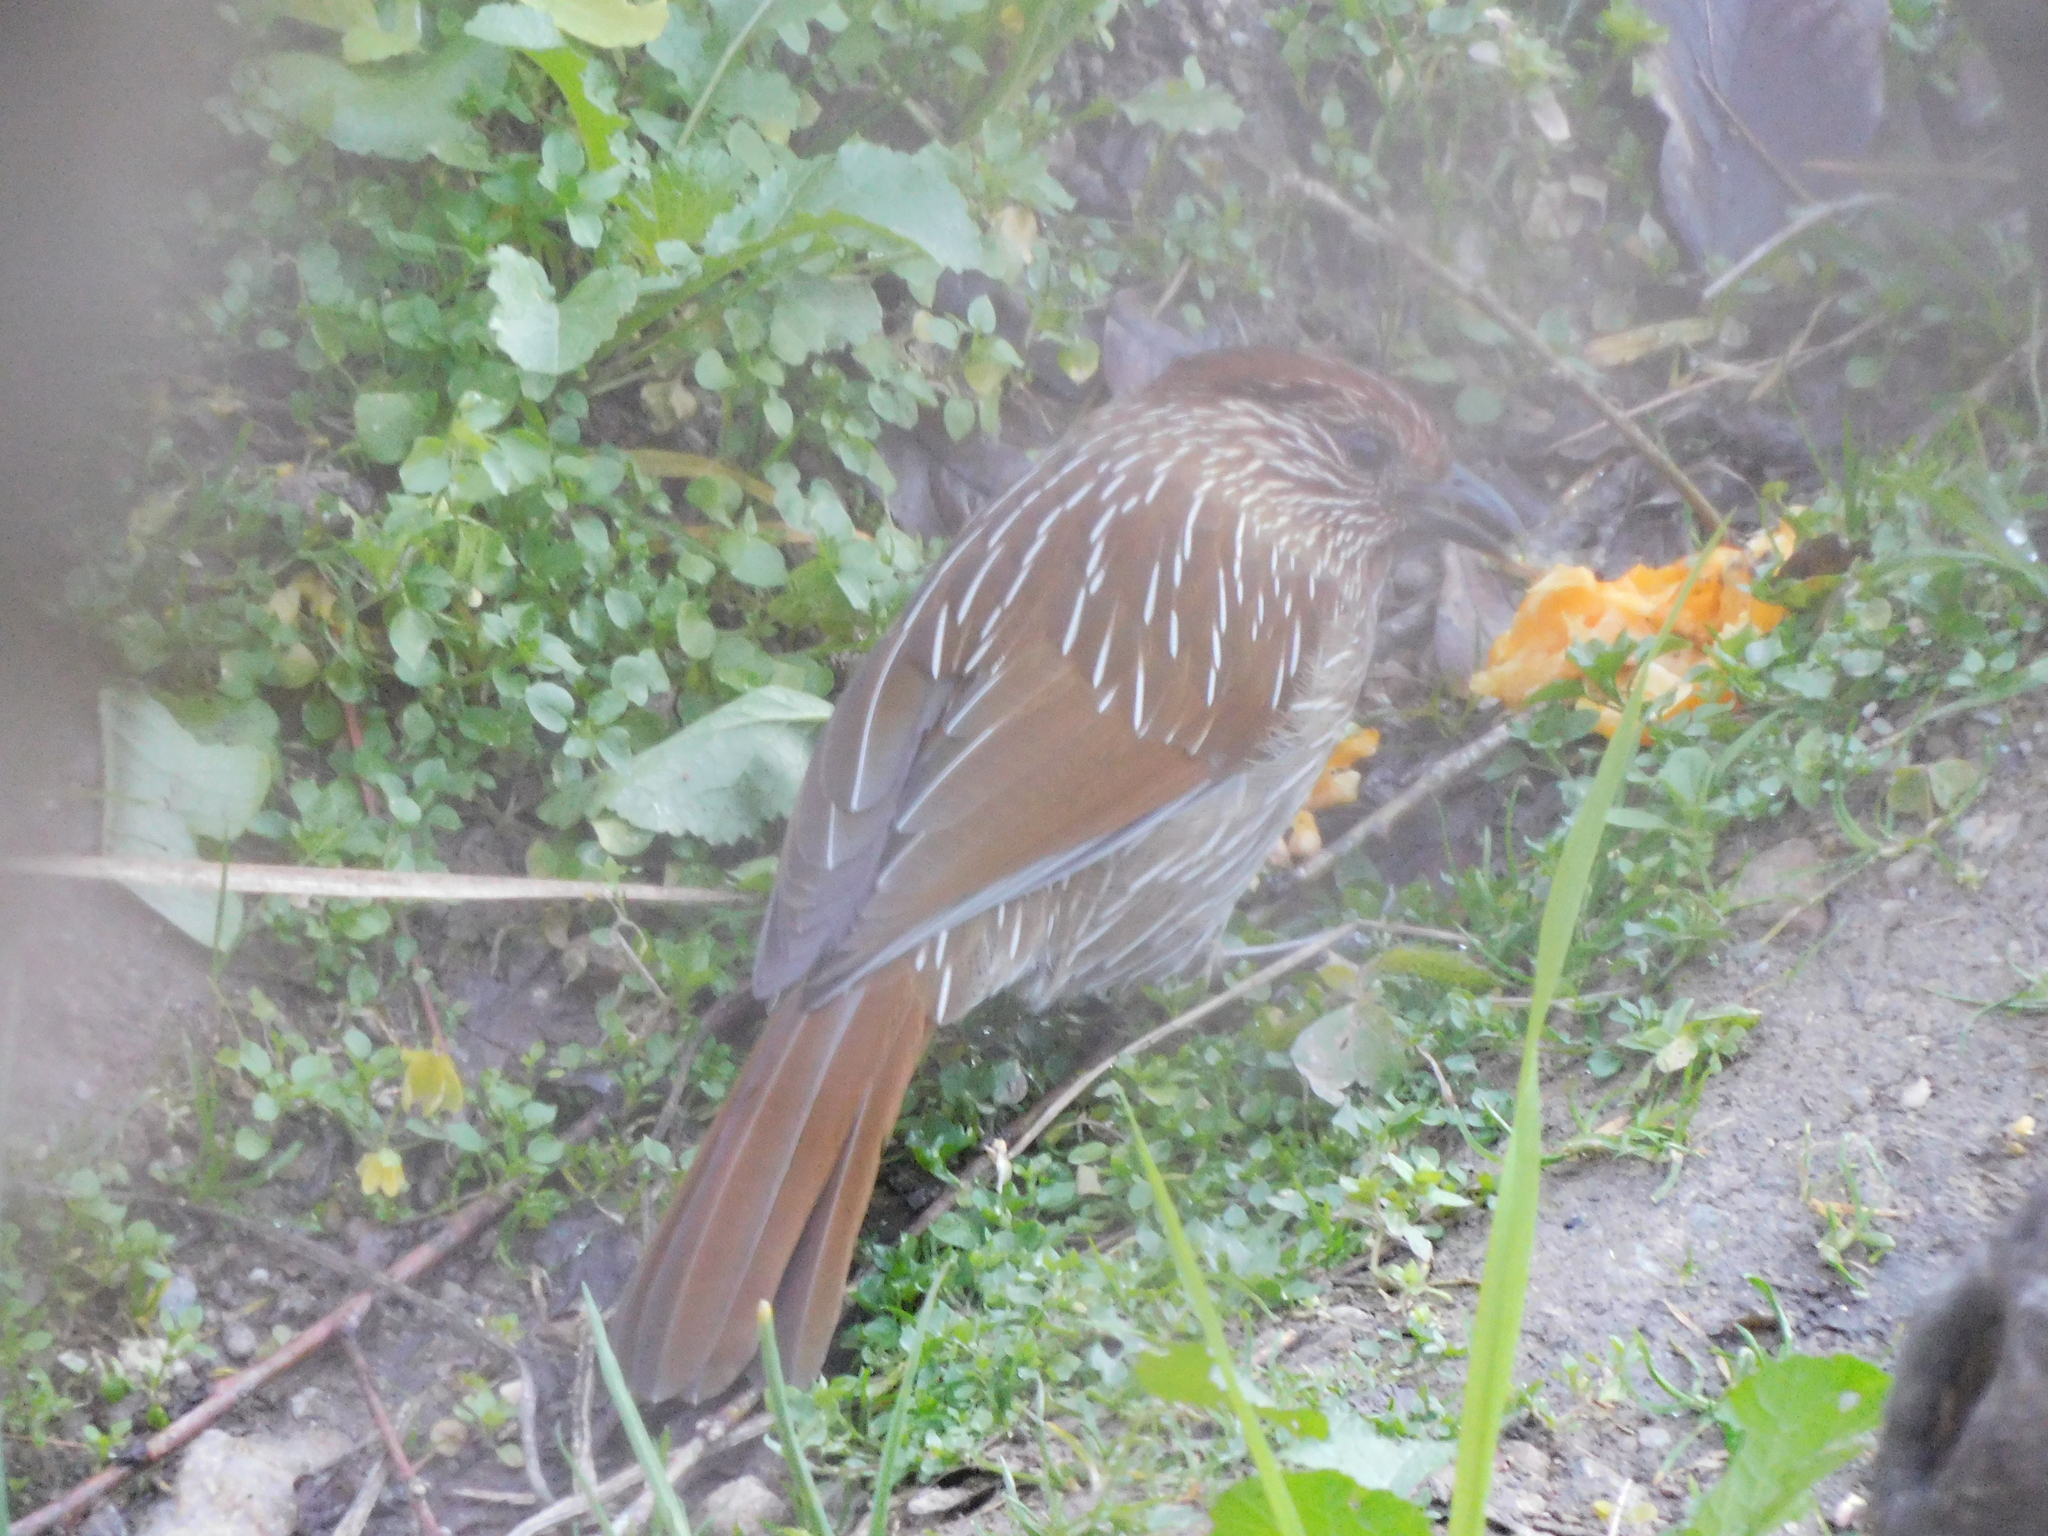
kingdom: Animalia
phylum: Chordata
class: Aves
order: Passeriformes
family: Leiothrichidae
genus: Garrulax
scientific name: Garrulax striatus
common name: Striated laughingthrush
